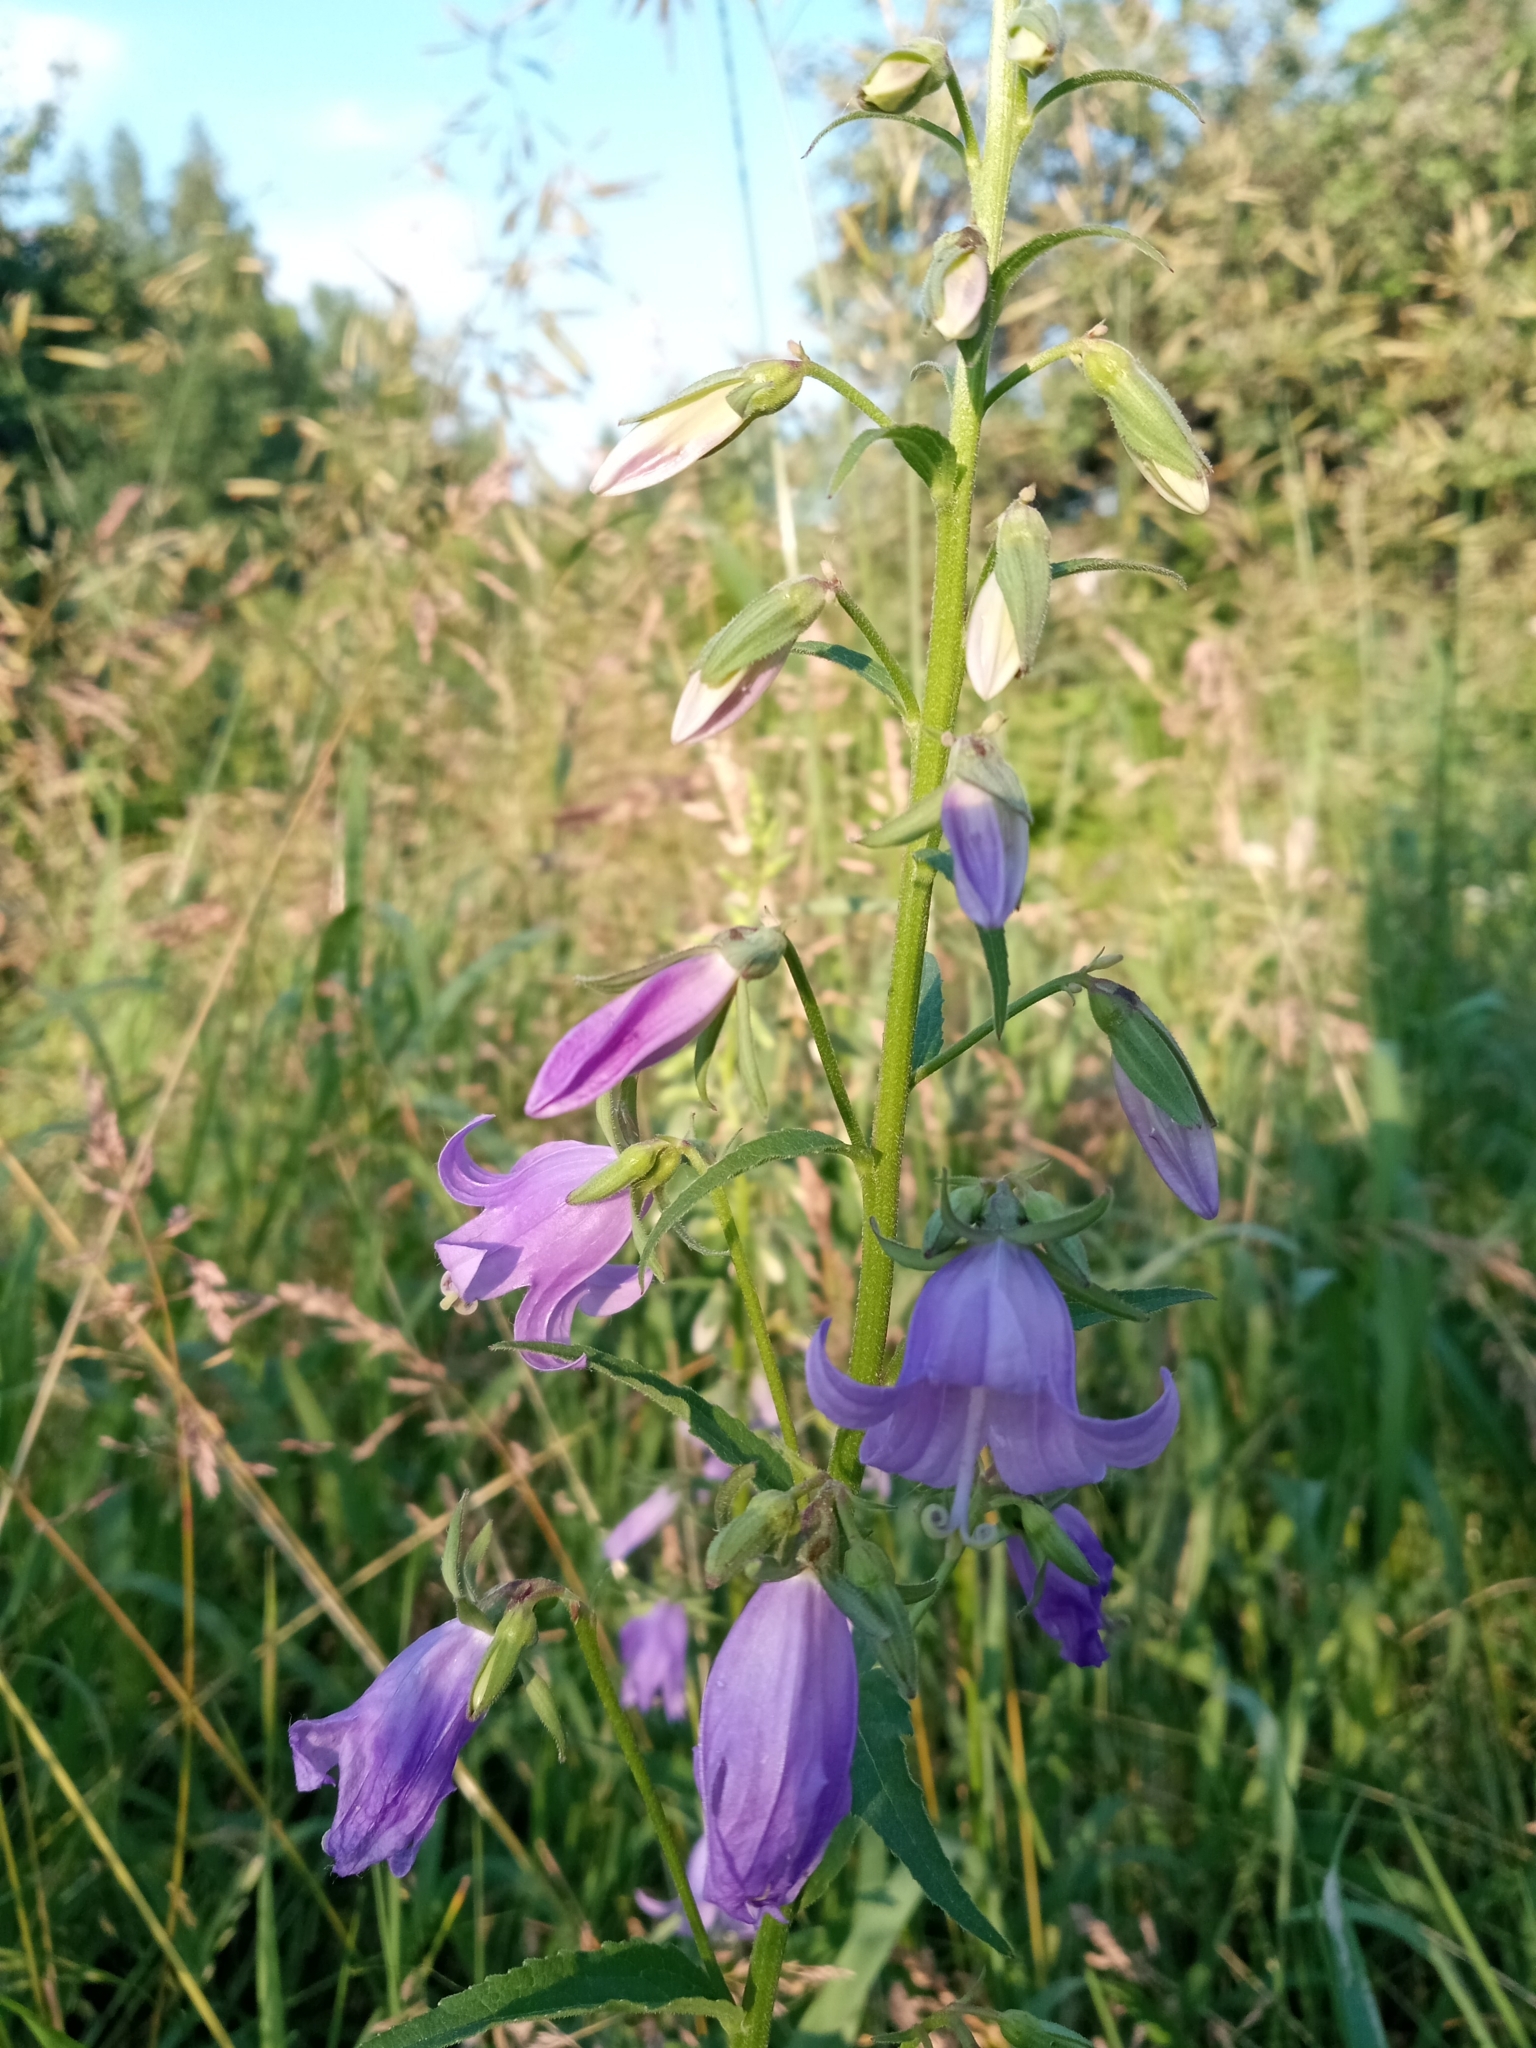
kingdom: Plantae
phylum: Tracheophyta
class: Magnoliopsida
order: Asterales
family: Campanulaceae
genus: Campanula
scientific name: Campanula rapunculoides
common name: Creeping bellflower
